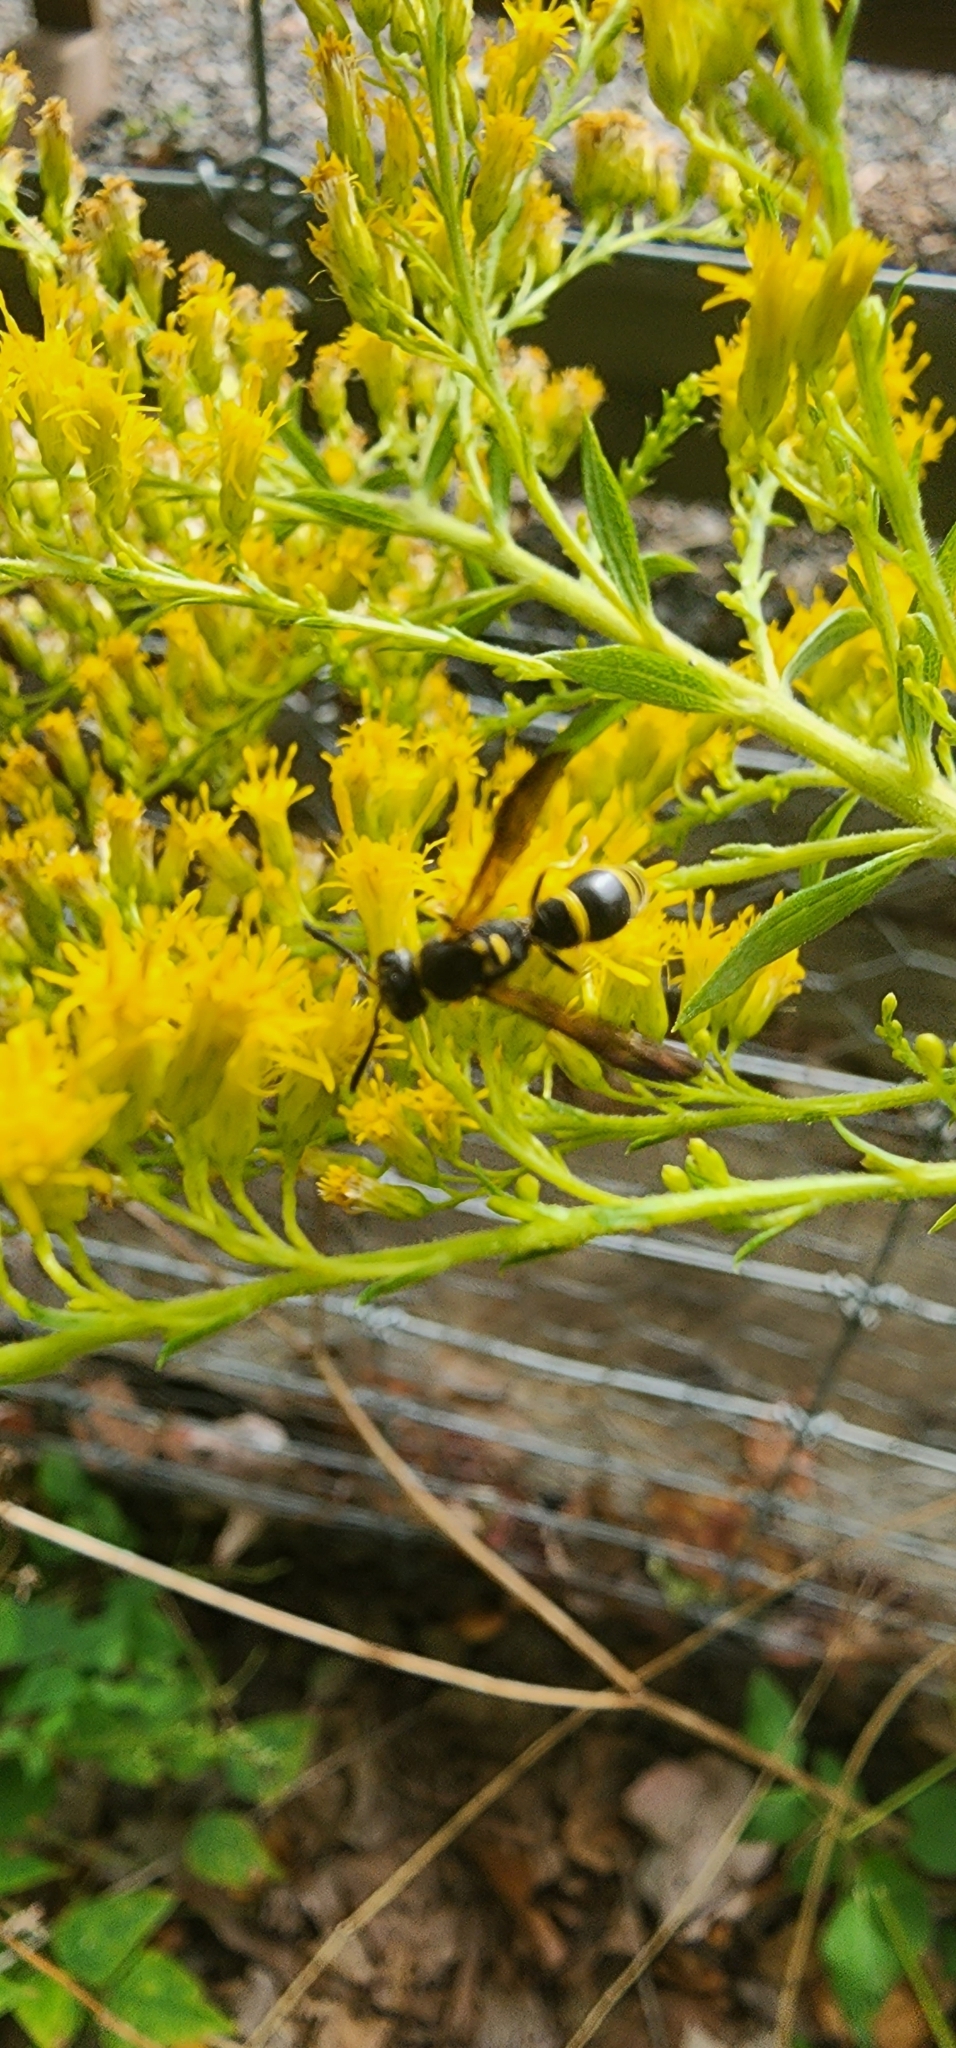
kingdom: Animalia
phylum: Arthropoda
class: Insecta
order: Hymenoptera
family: Vespidae
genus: Ancistrocerus
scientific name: Ancistrocerus adiabatus
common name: Bramble mason wasp
